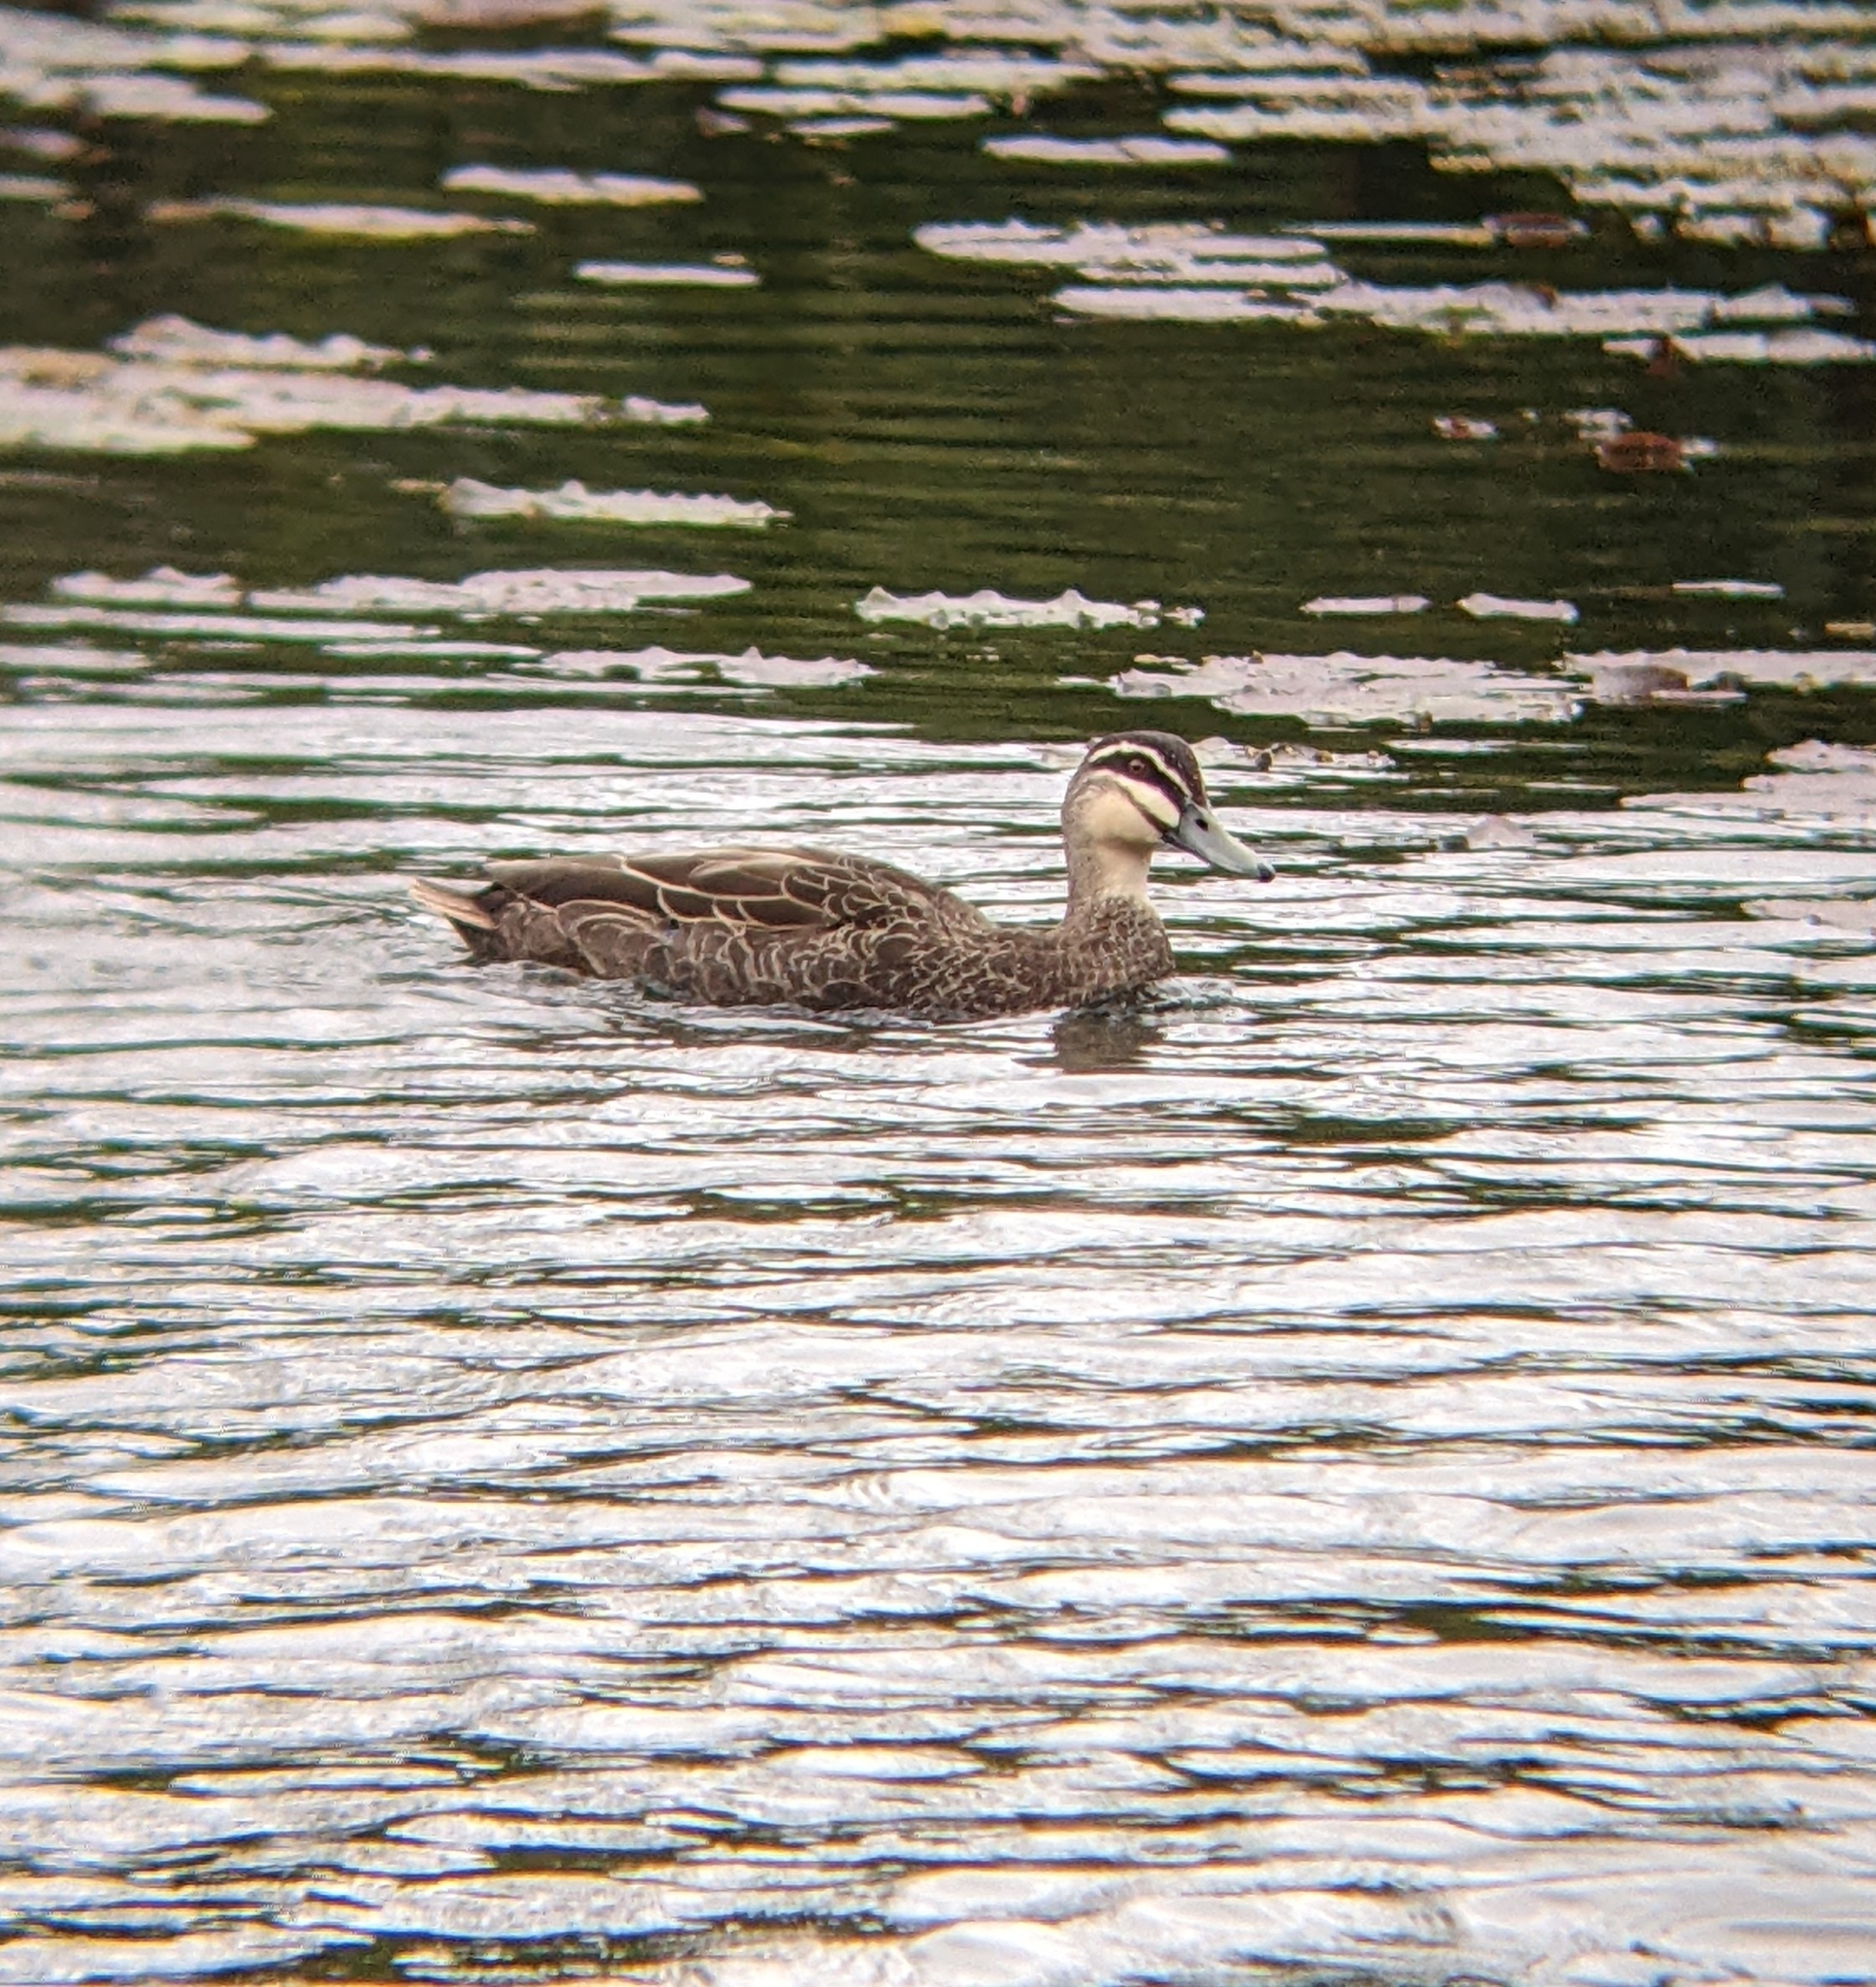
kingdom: Animalia
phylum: Chordata
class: Aves
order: Anseriformes
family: Anatidae
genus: Anas
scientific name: Anas superciliosa
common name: Pacific black duck
